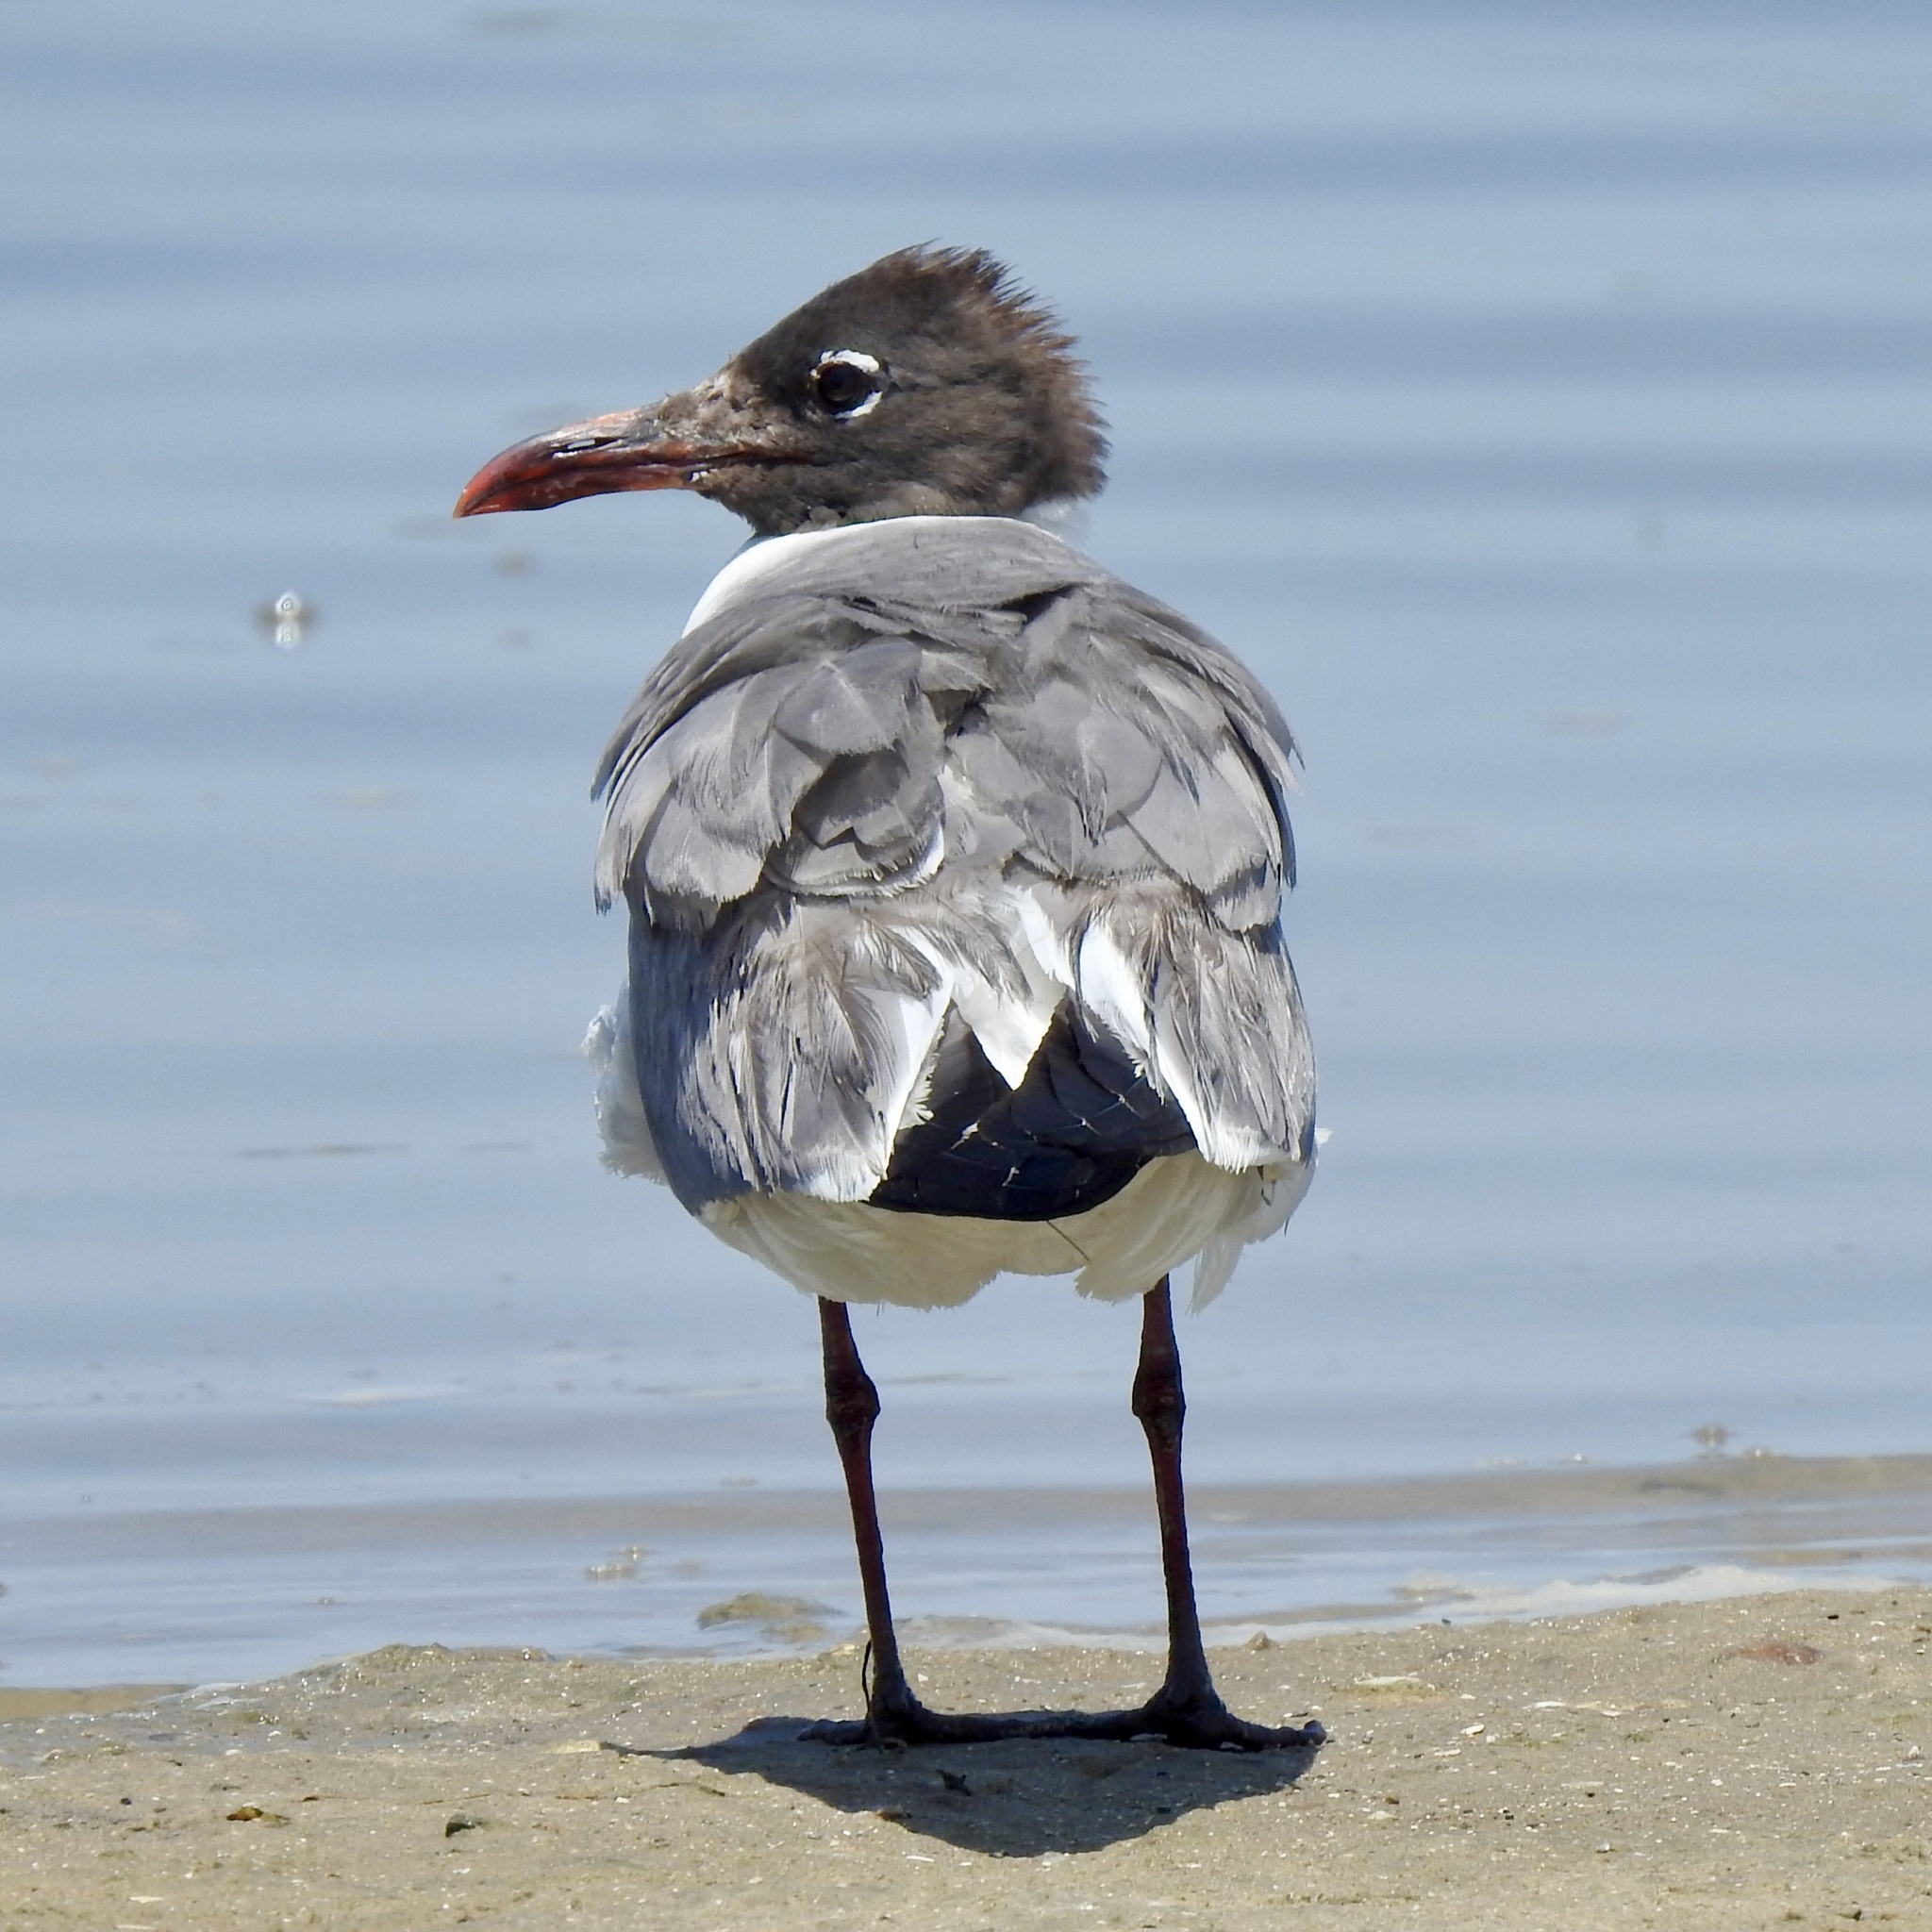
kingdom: Animalia
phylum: Chordata
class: Aves
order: Charadriiformes
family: Laridae
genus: Leucophaeus
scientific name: Leucophaeus atricilla
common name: Laughing gull
